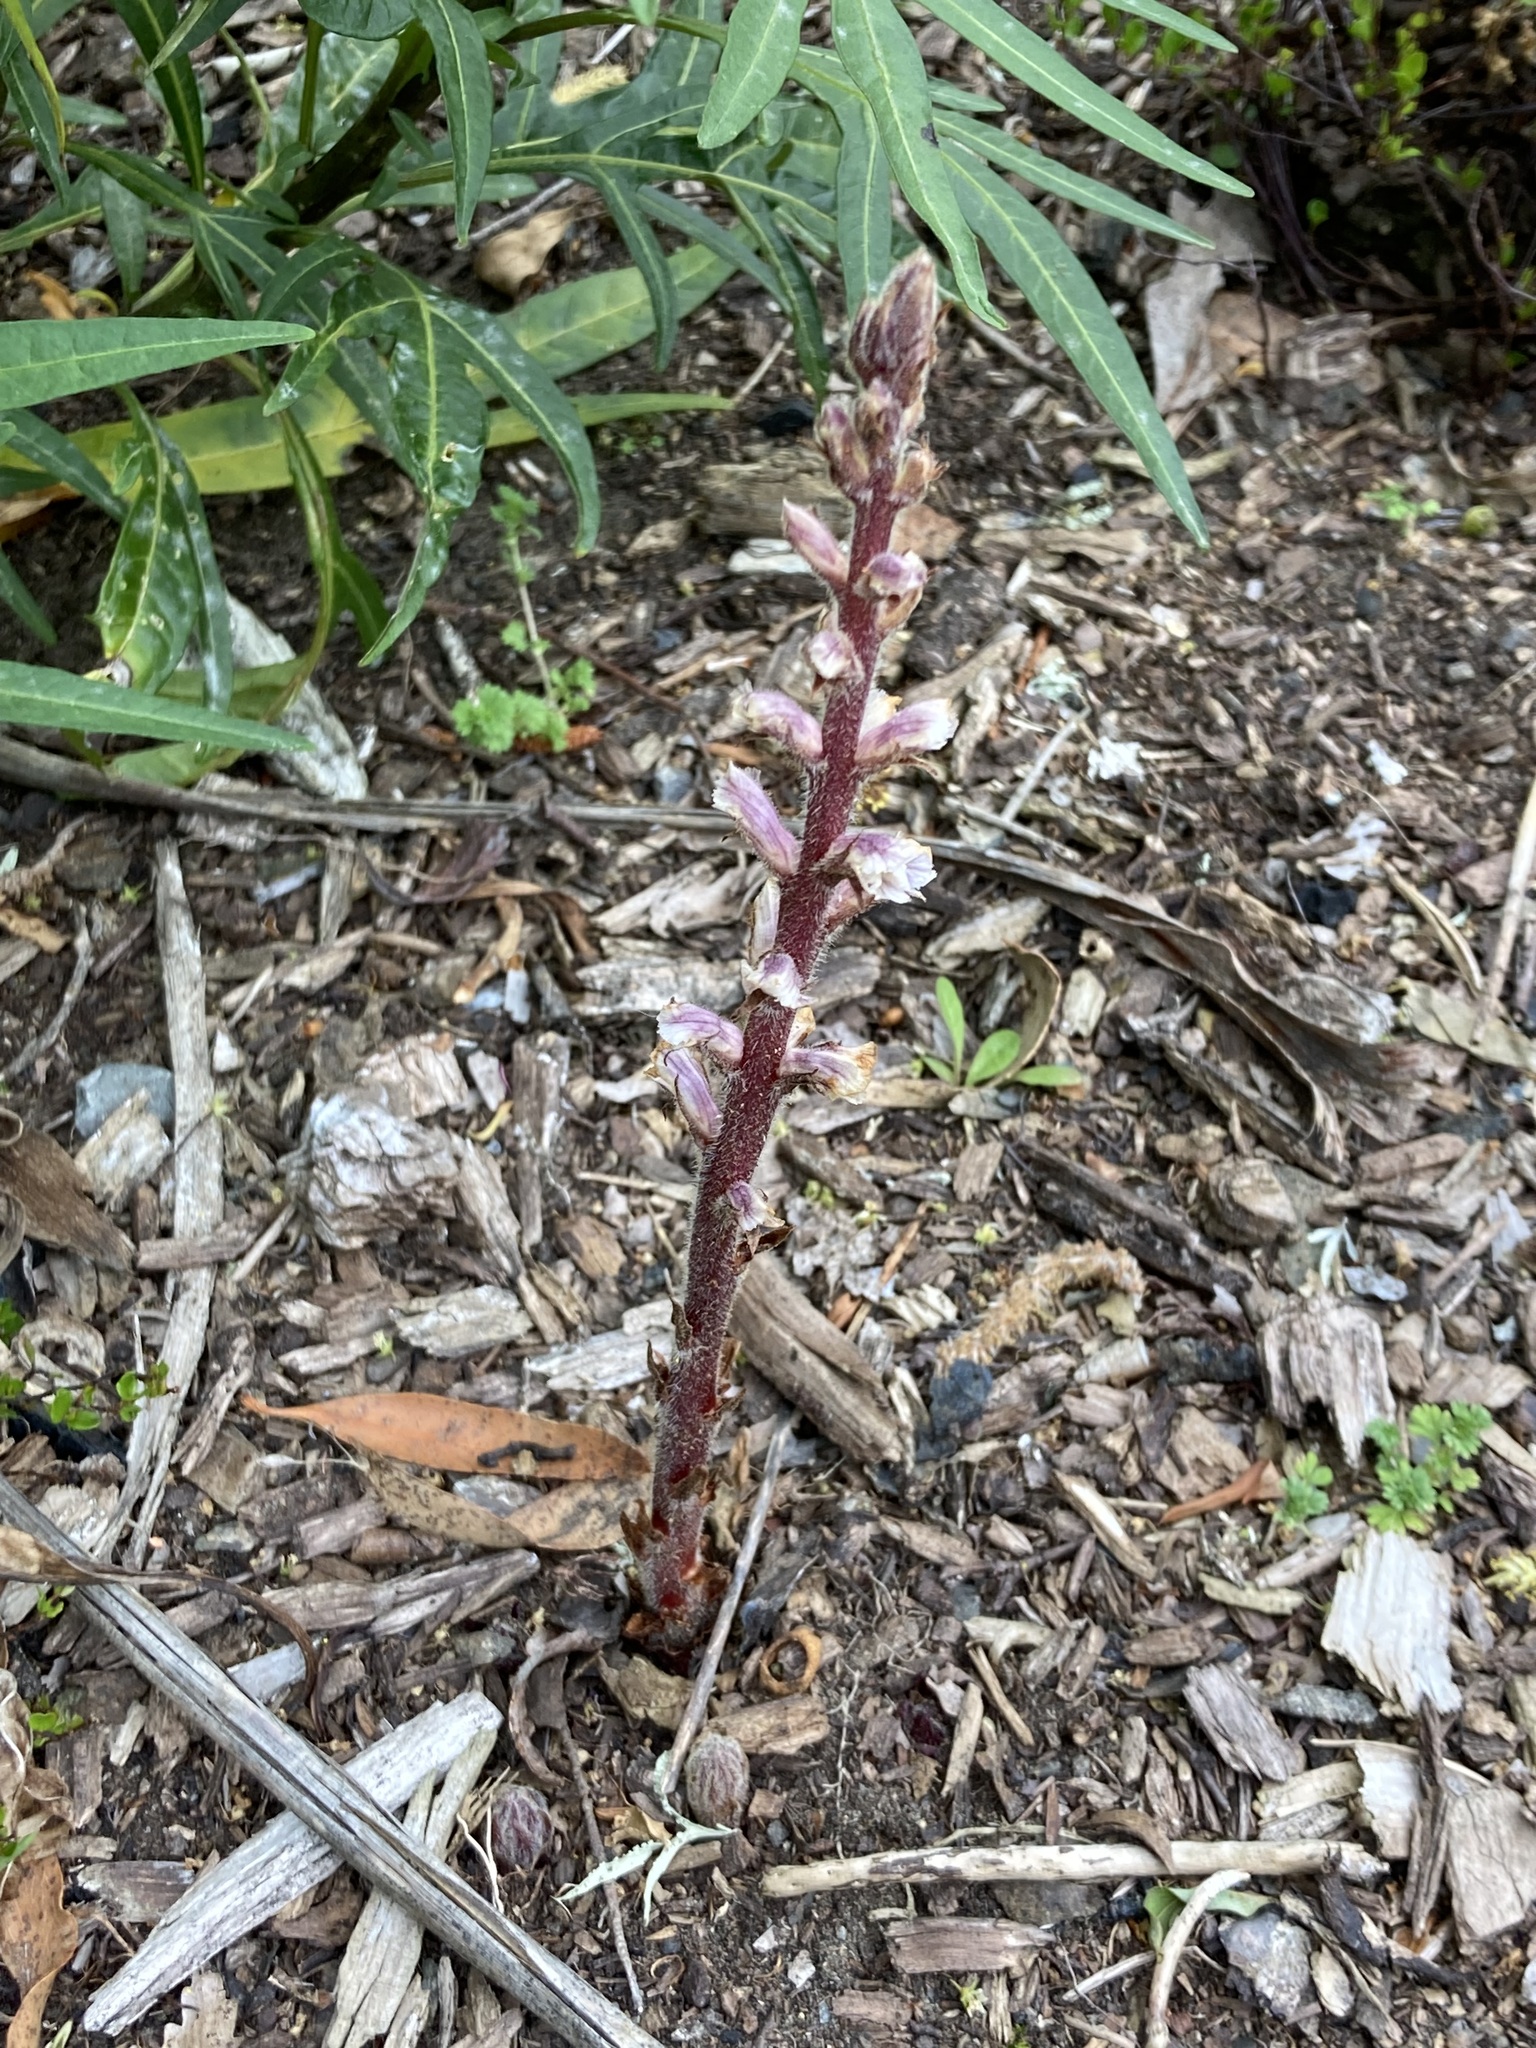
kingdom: Plantae
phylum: Tracheophyta
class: Magnoliopsida
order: Lamiales
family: Orobanchaceae
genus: Orobanche
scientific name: Orobanche minor
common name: Common broomrape
